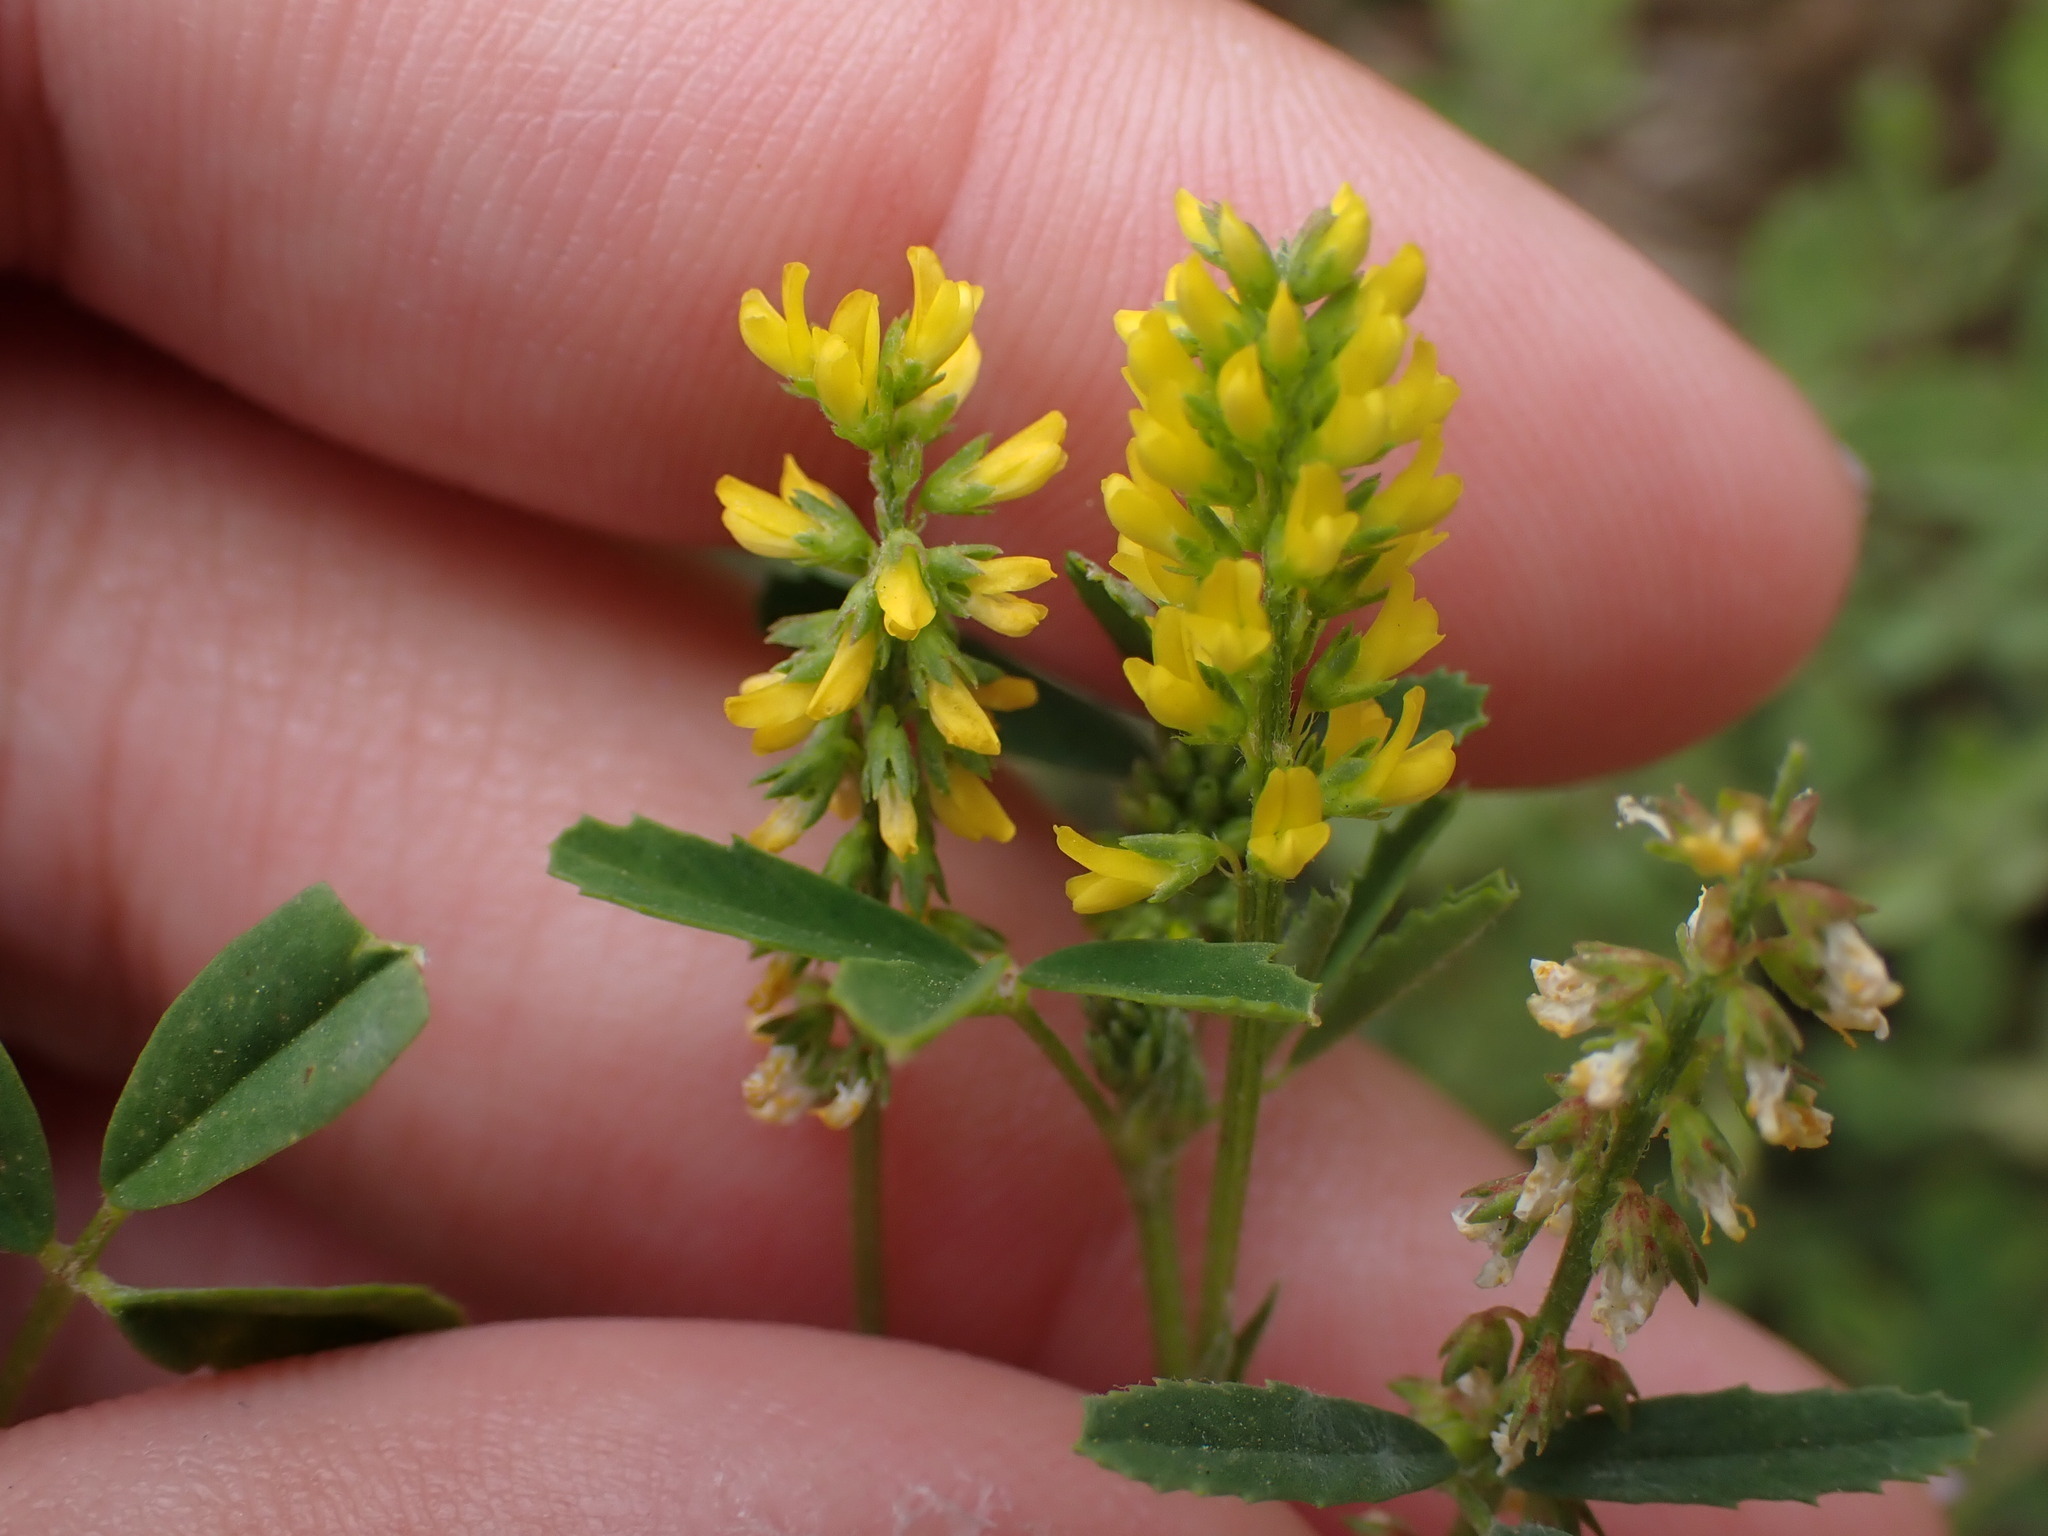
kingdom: Plantae
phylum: Tracheophyta
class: Magnoliopsida
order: Fabales
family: Fabaceae
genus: Melilotus
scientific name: Melilotus indicus
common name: Small melilot
